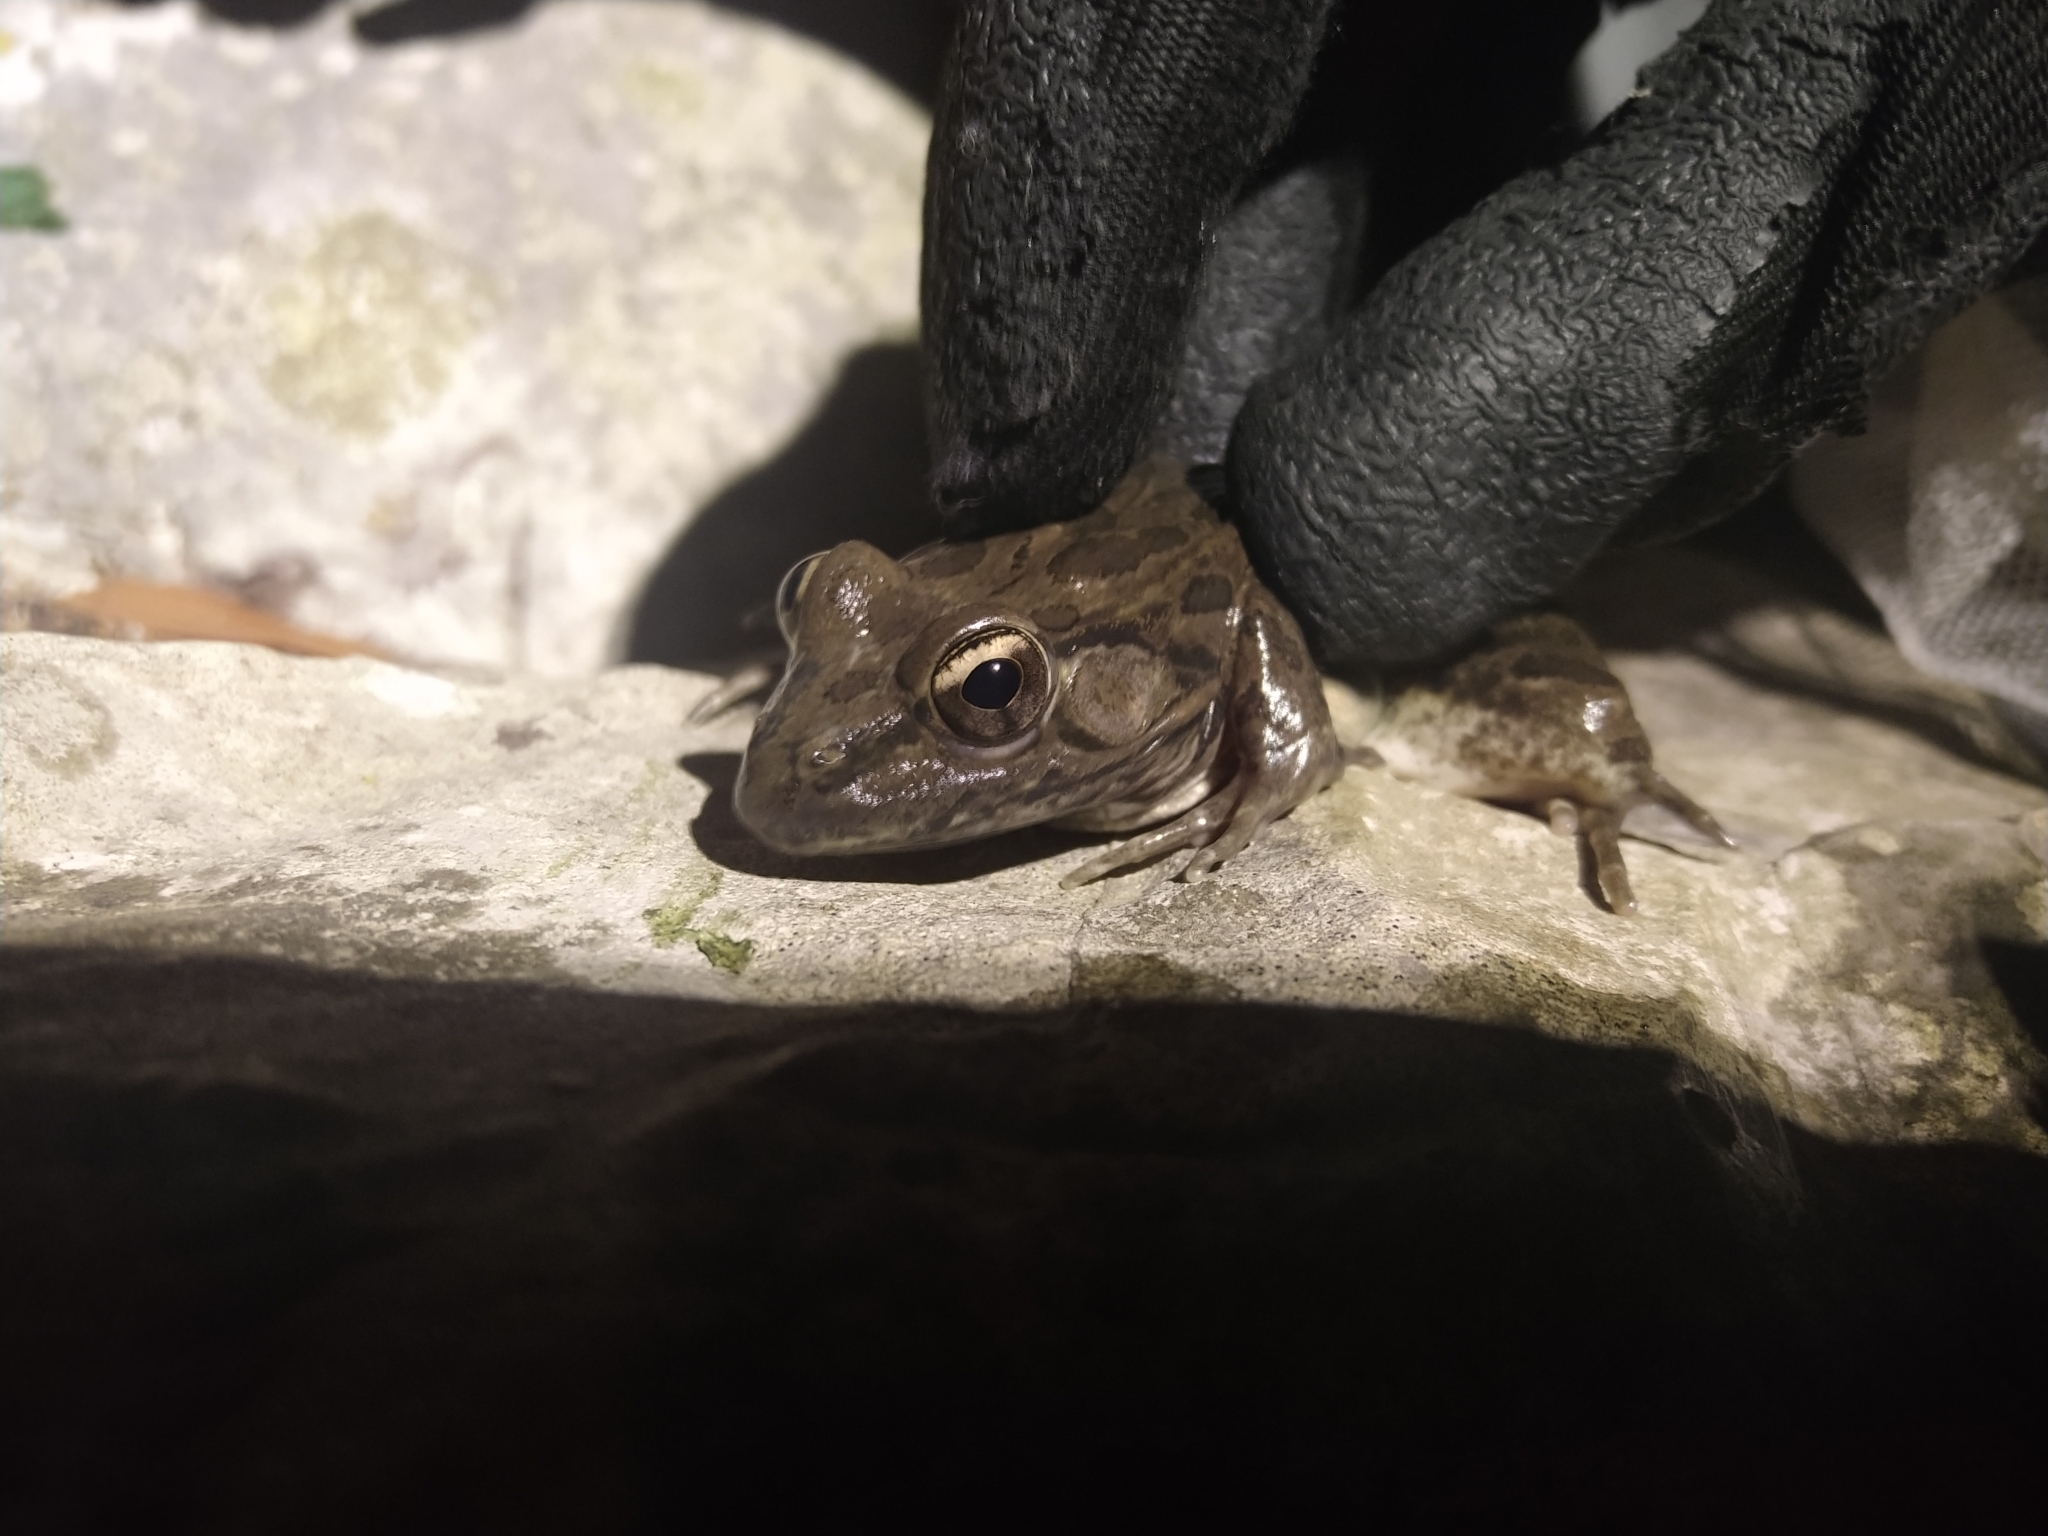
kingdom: Animalia
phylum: Chordata
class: Amphibia
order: Anura
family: Ranidae
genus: Lithobates
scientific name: Lithobates berlandieri
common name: Rio grande leopard frog
